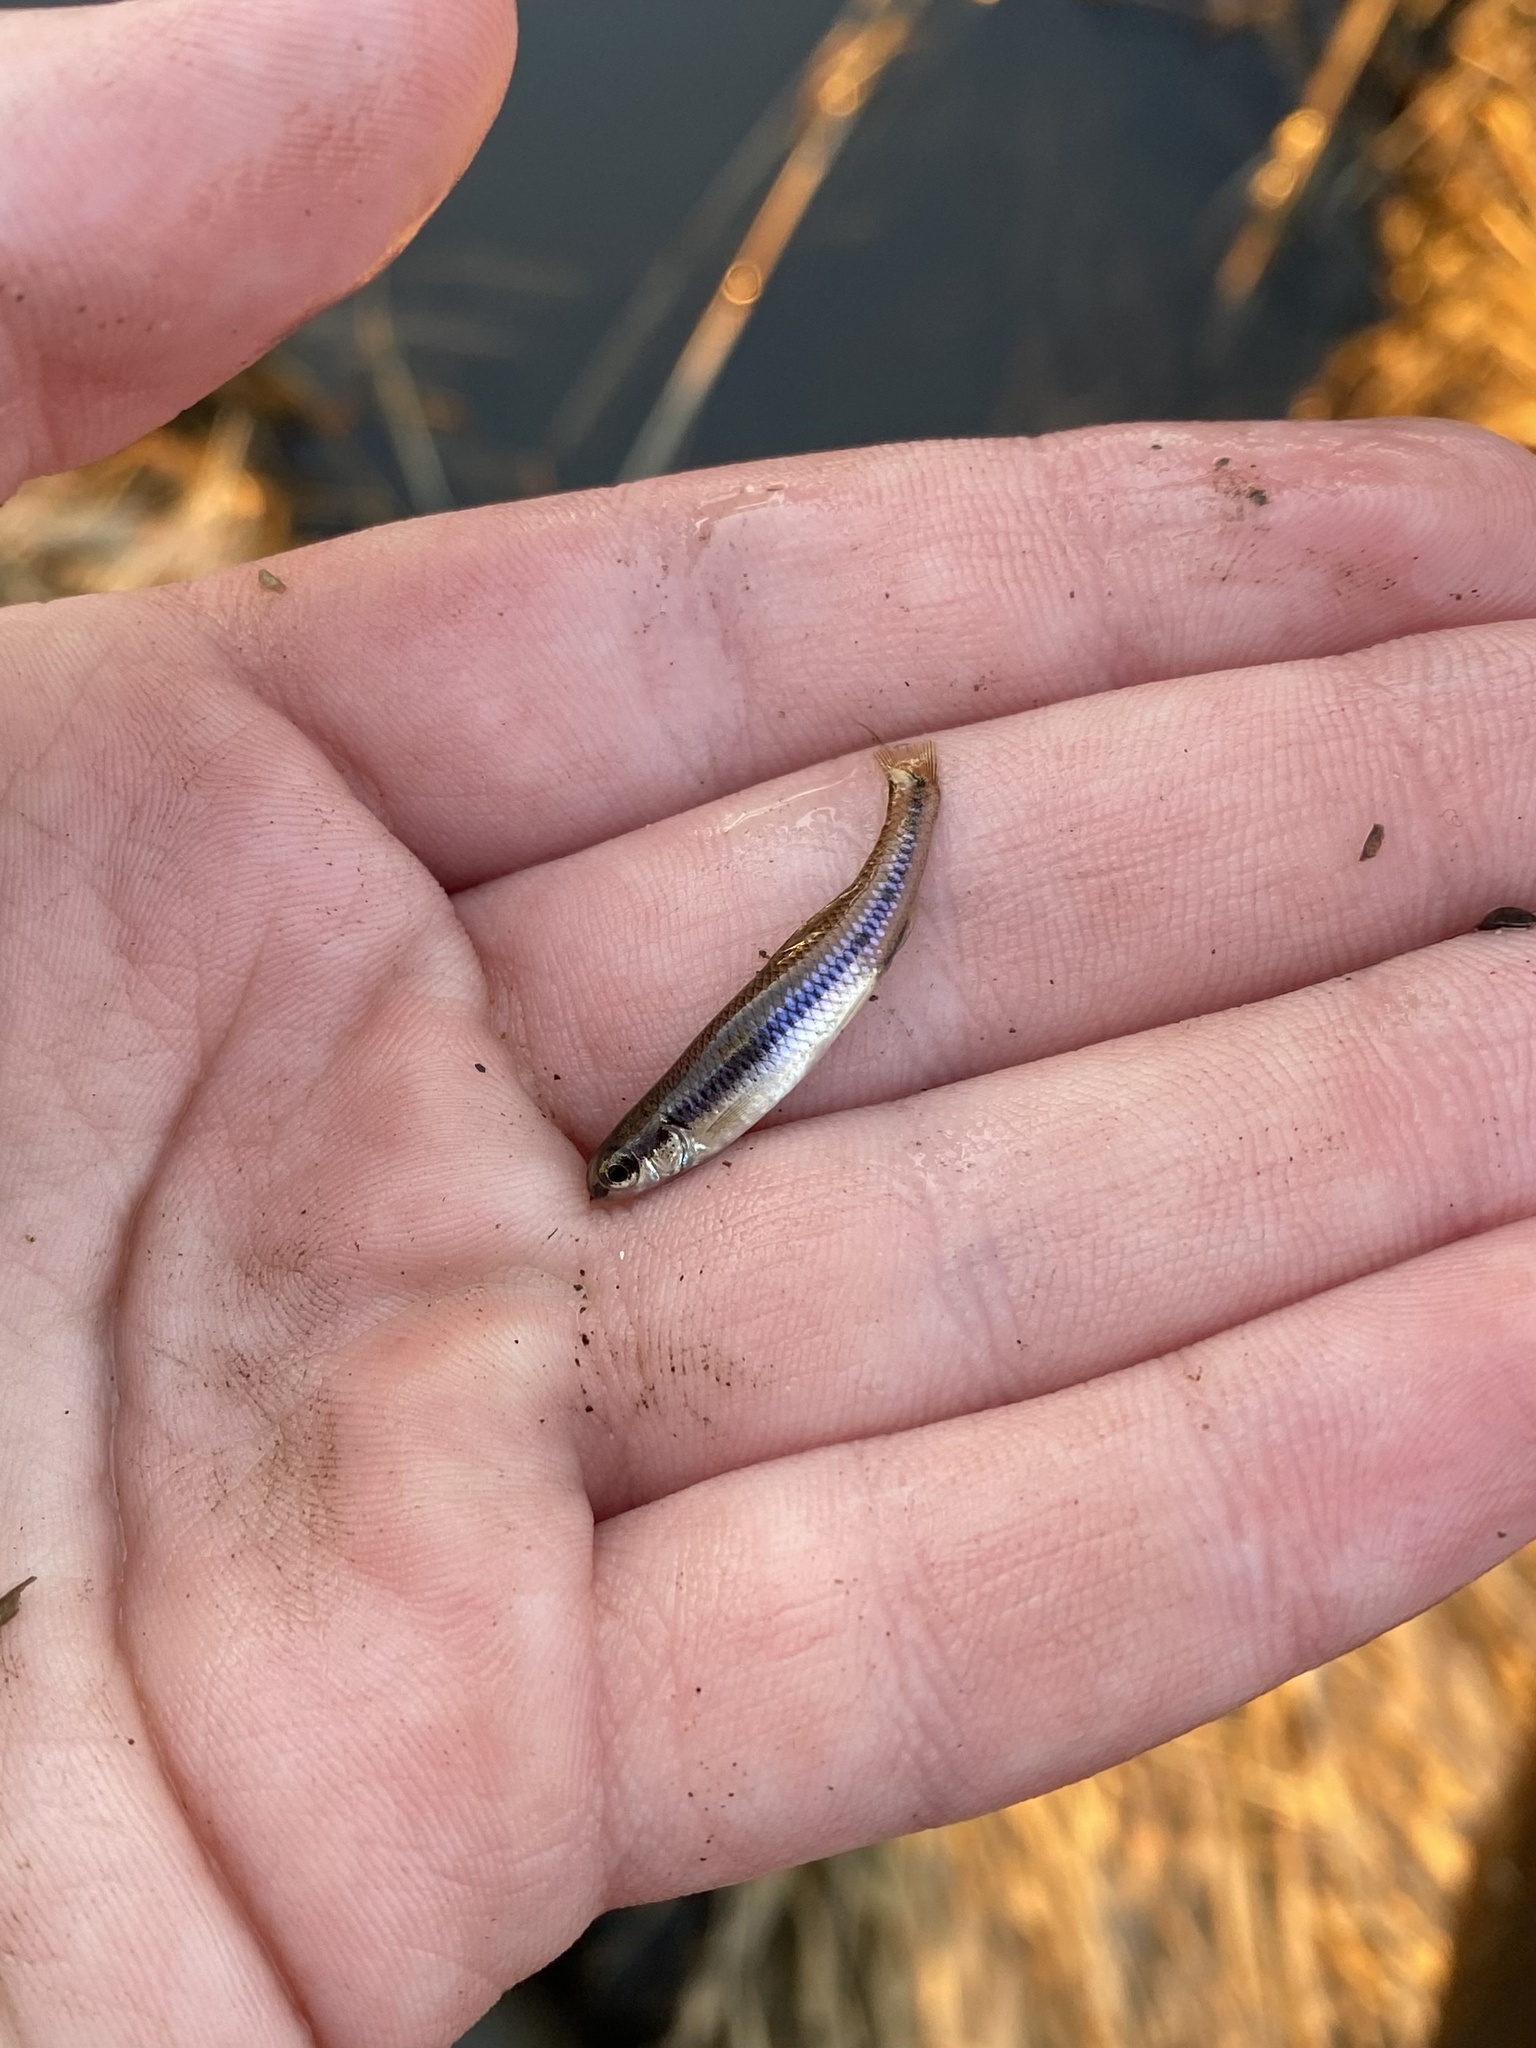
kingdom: Animalia
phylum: Chordata
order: Cypriniformes
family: Cyprinidae
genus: Pimephales
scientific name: Pimephales notatus
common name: Bluntnose minnow
